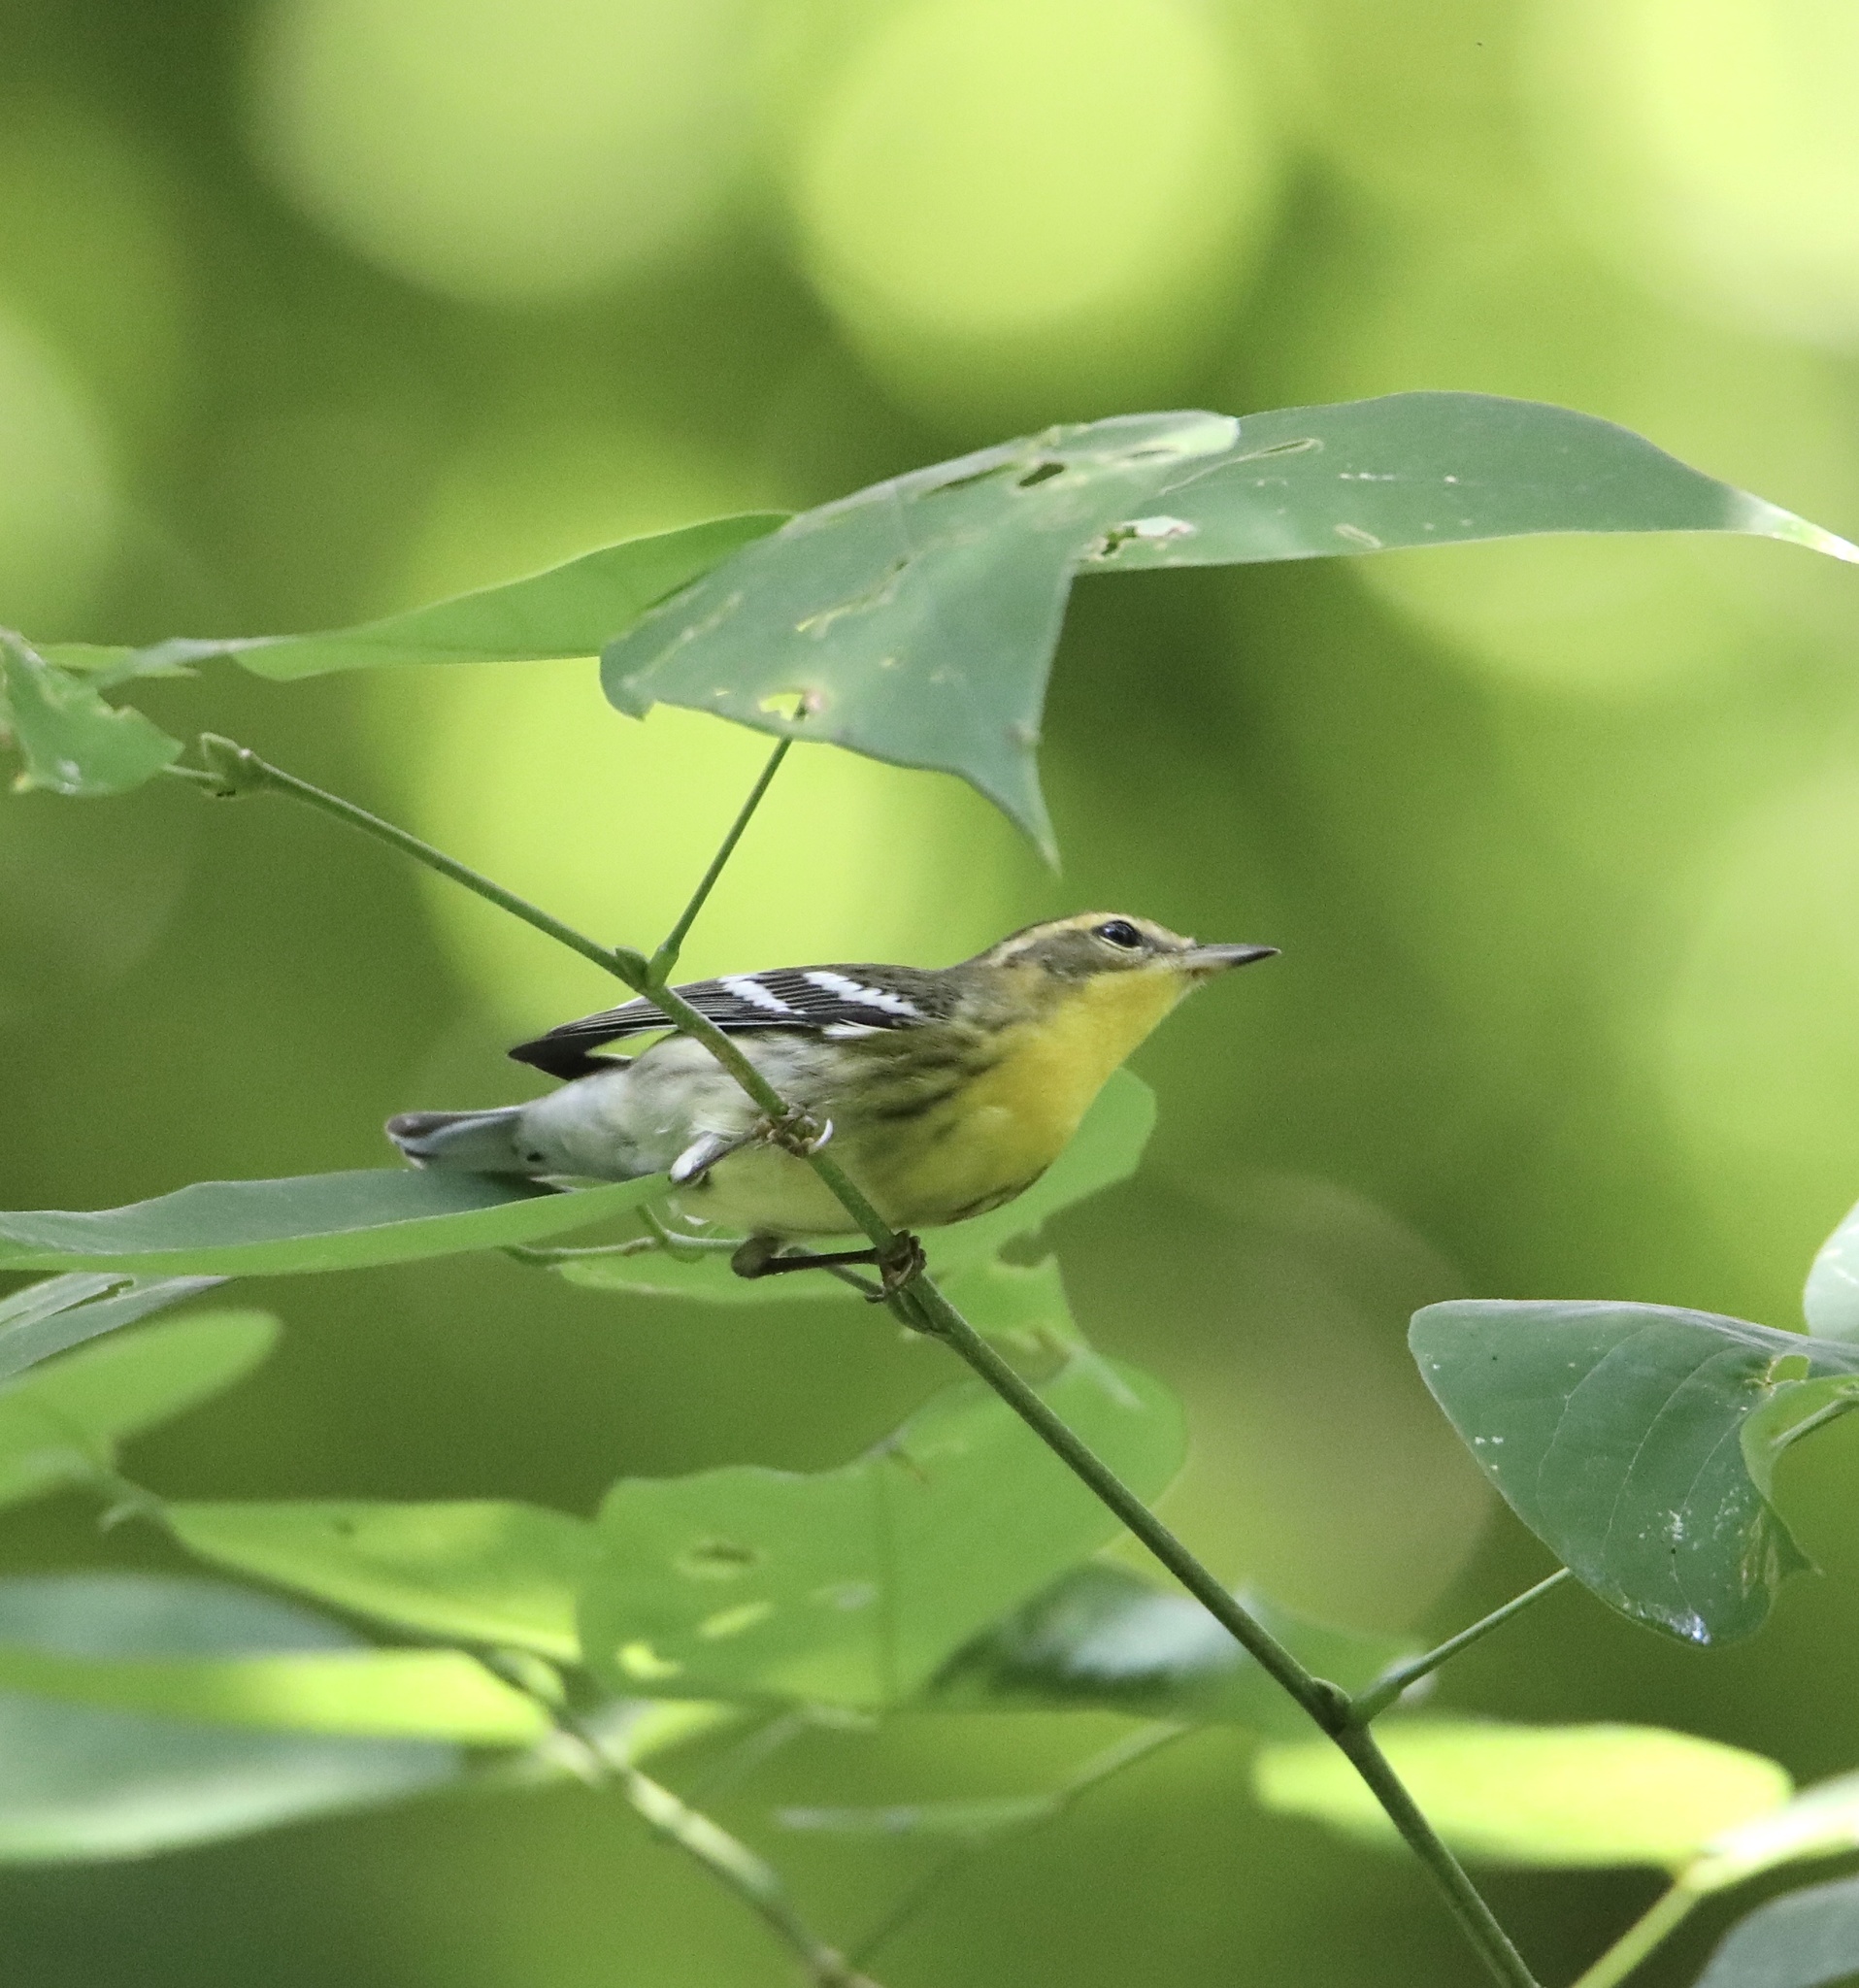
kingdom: Animalia
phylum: Chordata
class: Aves
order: Passeriformes
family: Parulidae
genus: Setophaga
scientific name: Setophaga fusca
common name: Blackburnian warbler
